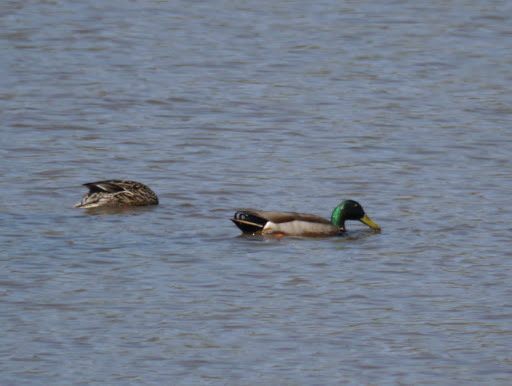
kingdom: Animalia
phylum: Chordata
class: Aves
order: Anseriformes
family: Anatidae
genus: Anas
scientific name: Anas platyrhynchos
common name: Mallard
